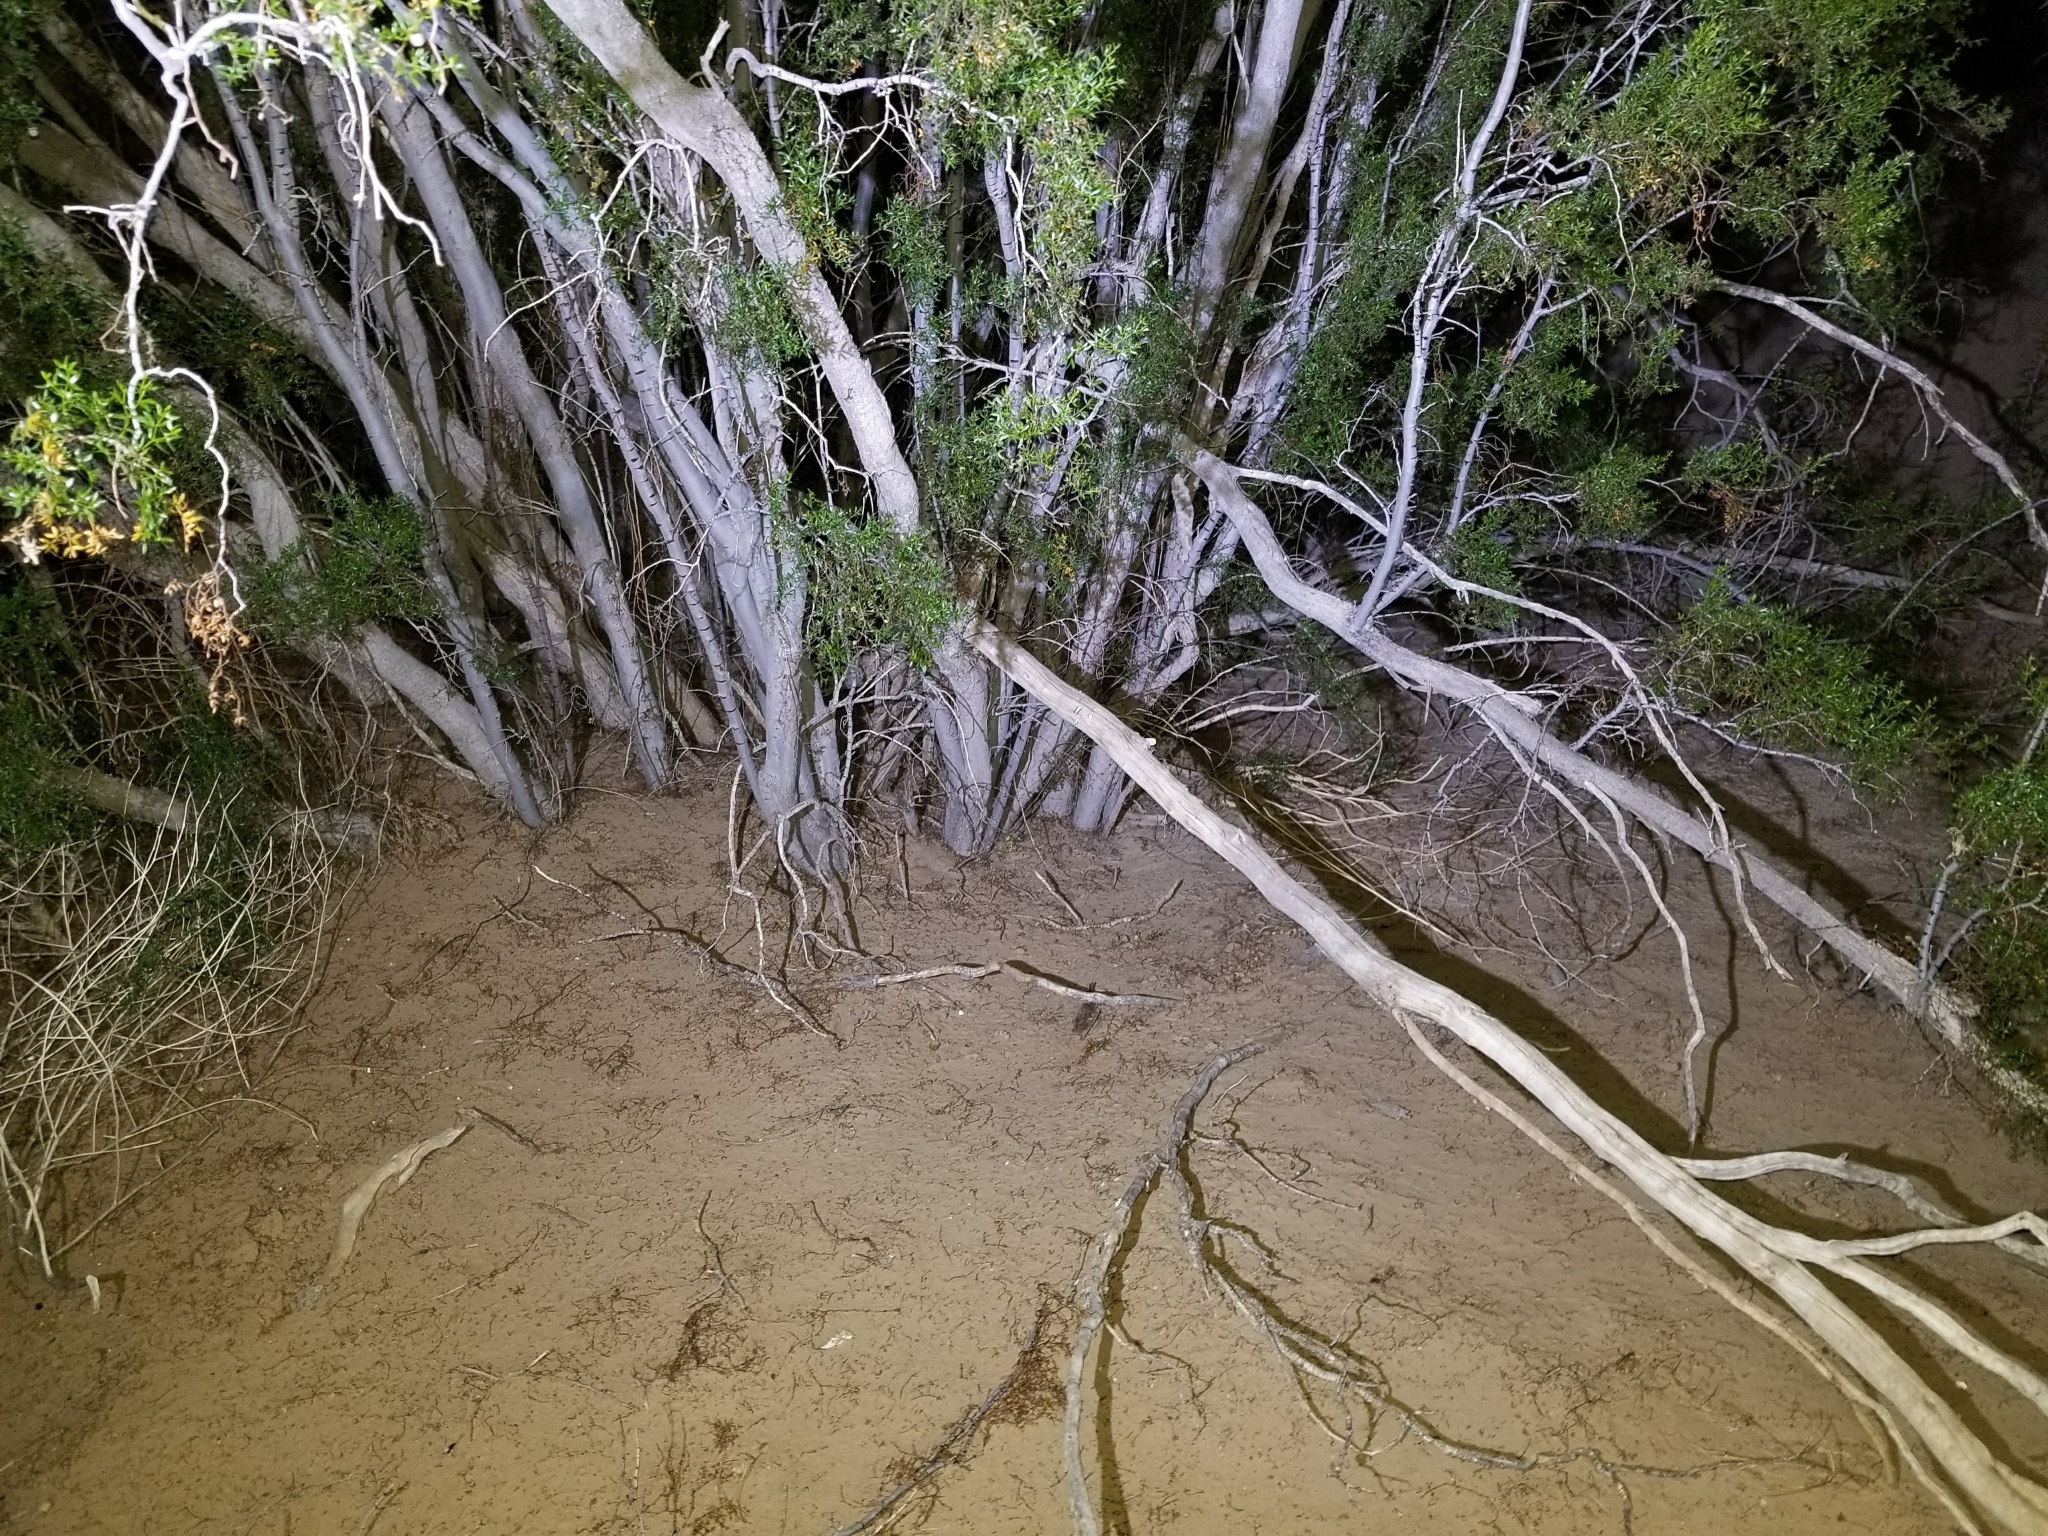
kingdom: Plantae
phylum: Tracheophyta
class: Magnoliopsida
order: Zygophyllales
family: Zygophyllaceae
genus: Larrea
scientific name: Larrea tridentata
